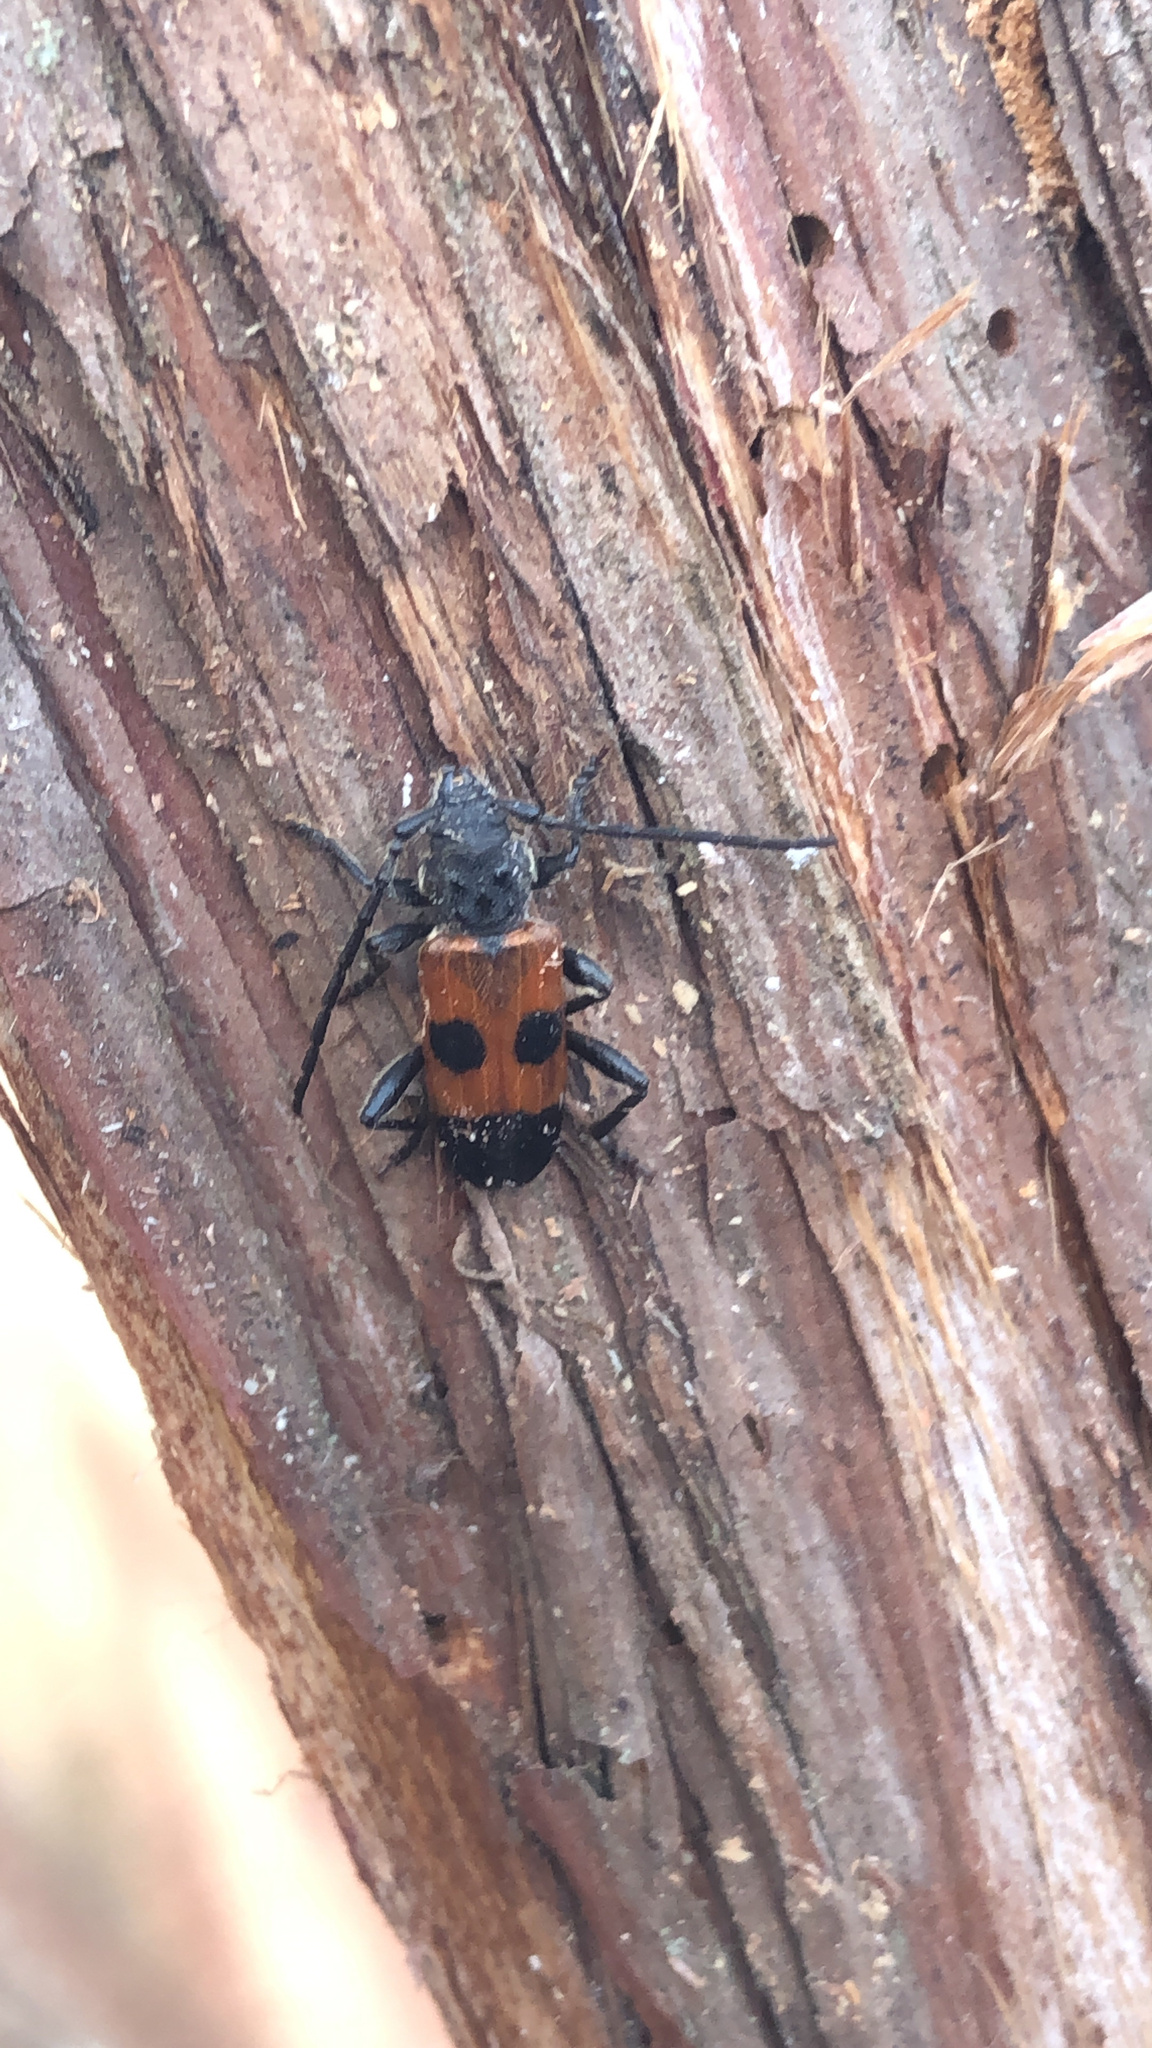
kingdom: Animalia
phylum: Arthropoda
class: Insecta
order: Coleoptera
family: Cerambycidae
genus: Semanotus
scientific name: Semanotus ligneus
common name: Cedartree borer
